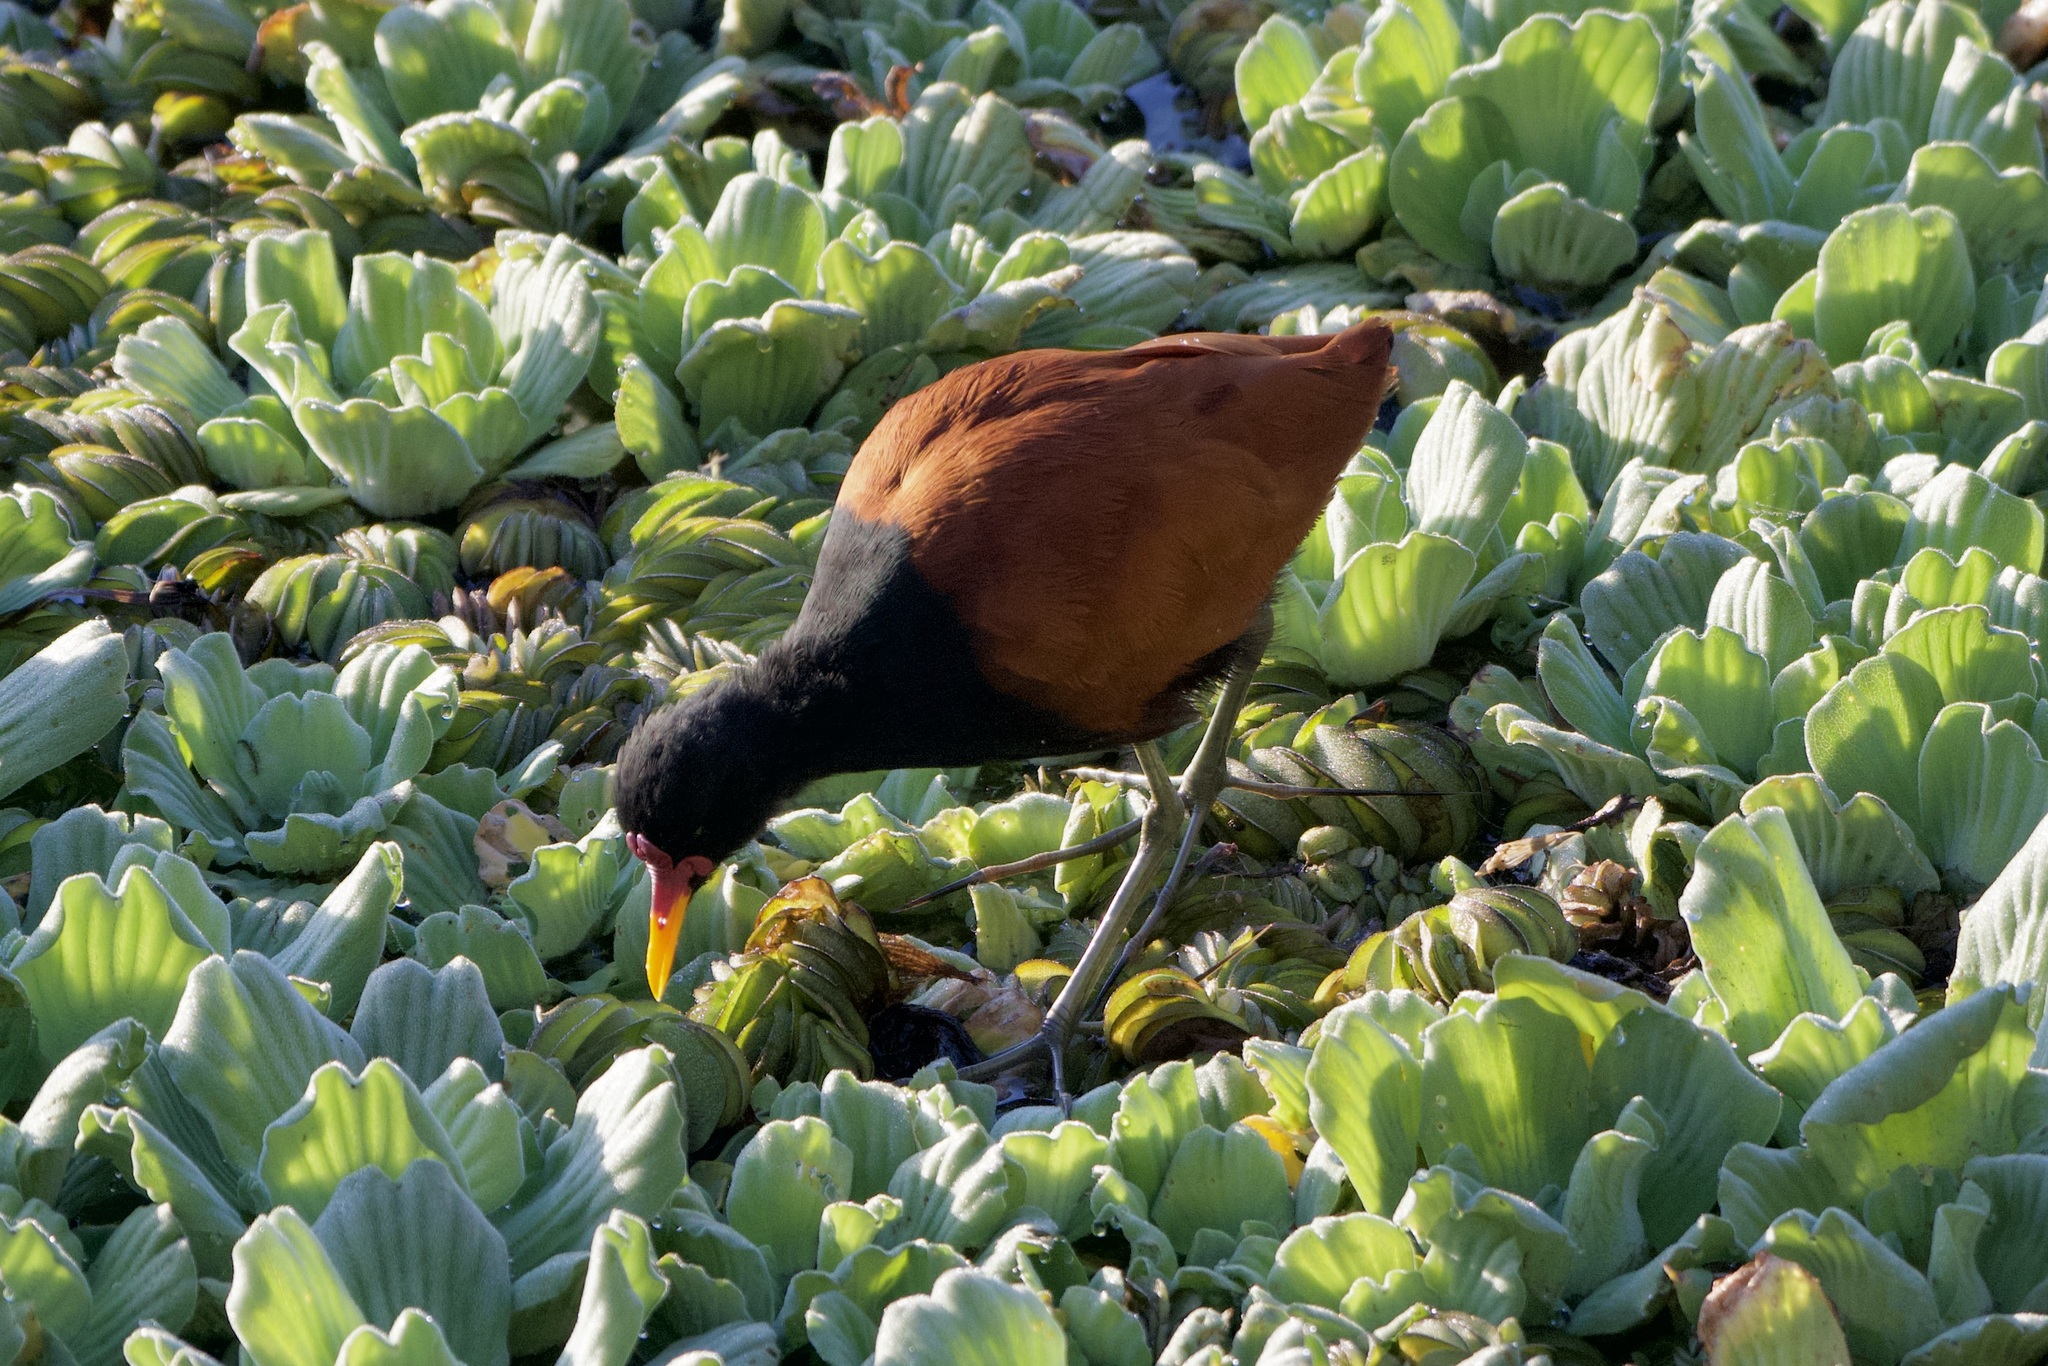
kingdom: Animalia
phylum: Chordata
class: Aves
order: Charadriiformes
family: Jacanidae
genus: Jacana
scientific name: Jacana jacana
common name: Wattled jacana
